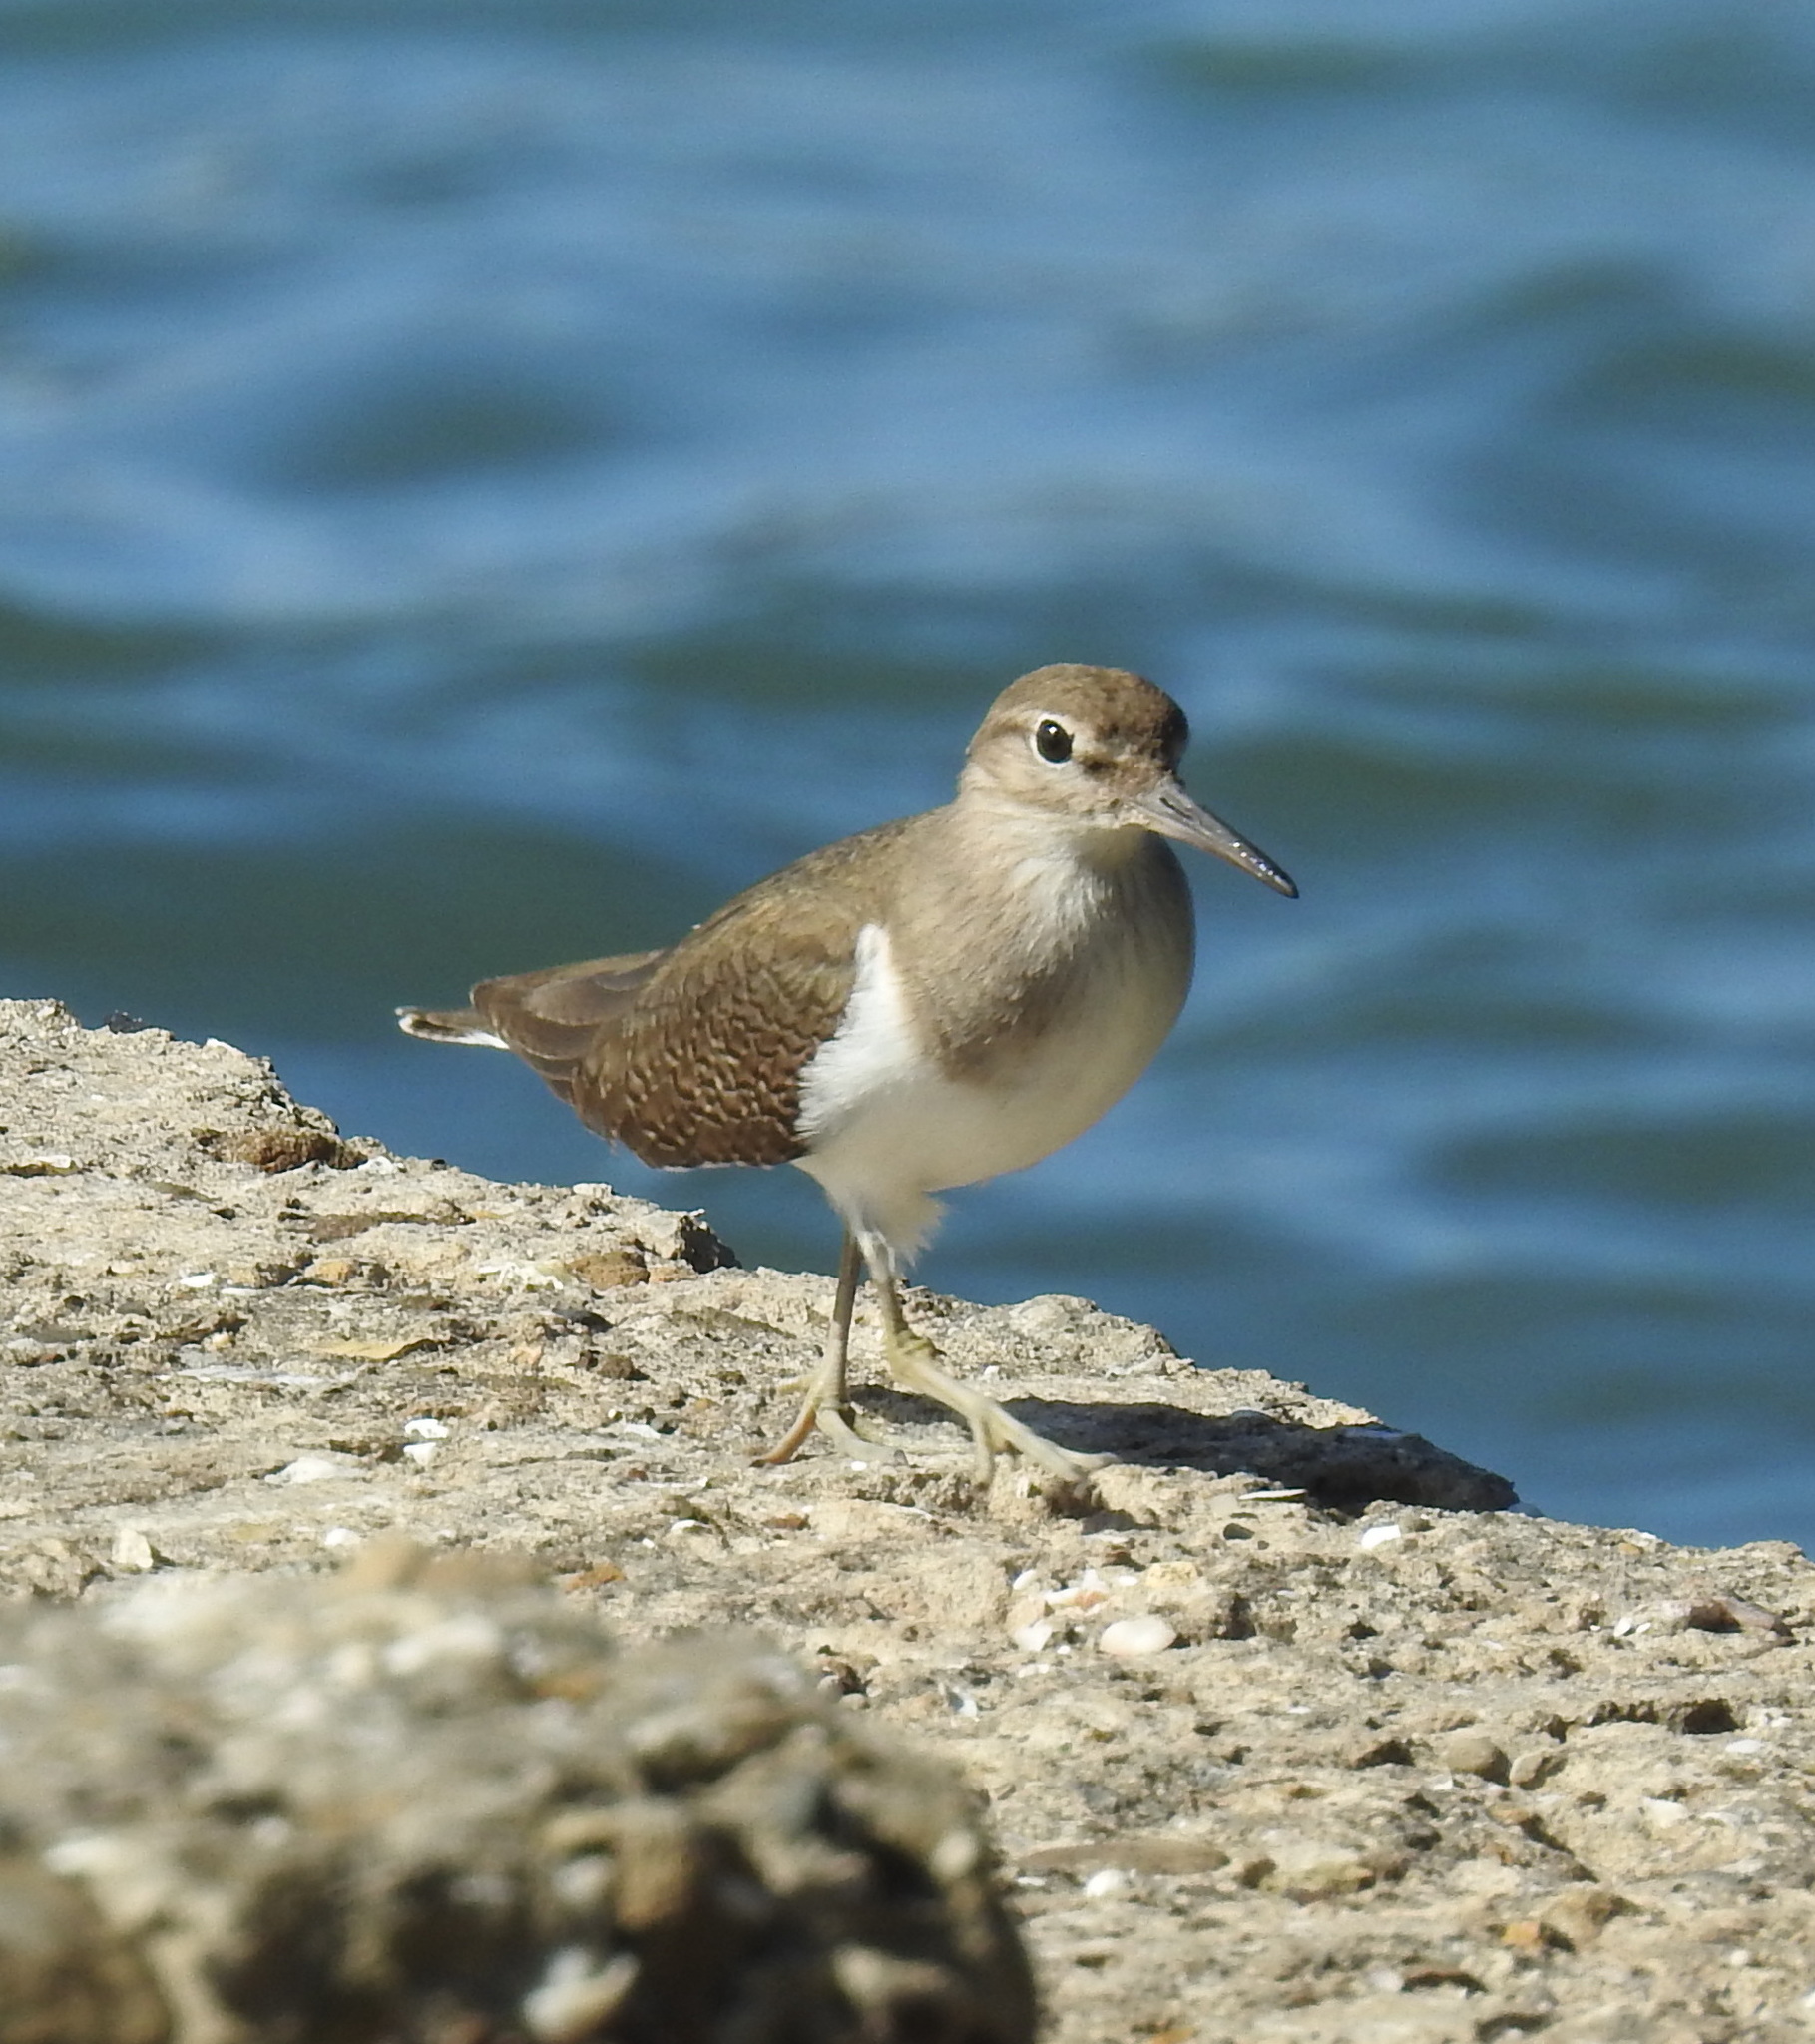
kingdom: Animalia
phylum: Chordata
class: Aves
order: Charadriiformes
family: Scolopacidae
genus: Actitis
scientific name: Actitis hypoleucos
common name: Common sandpiper
